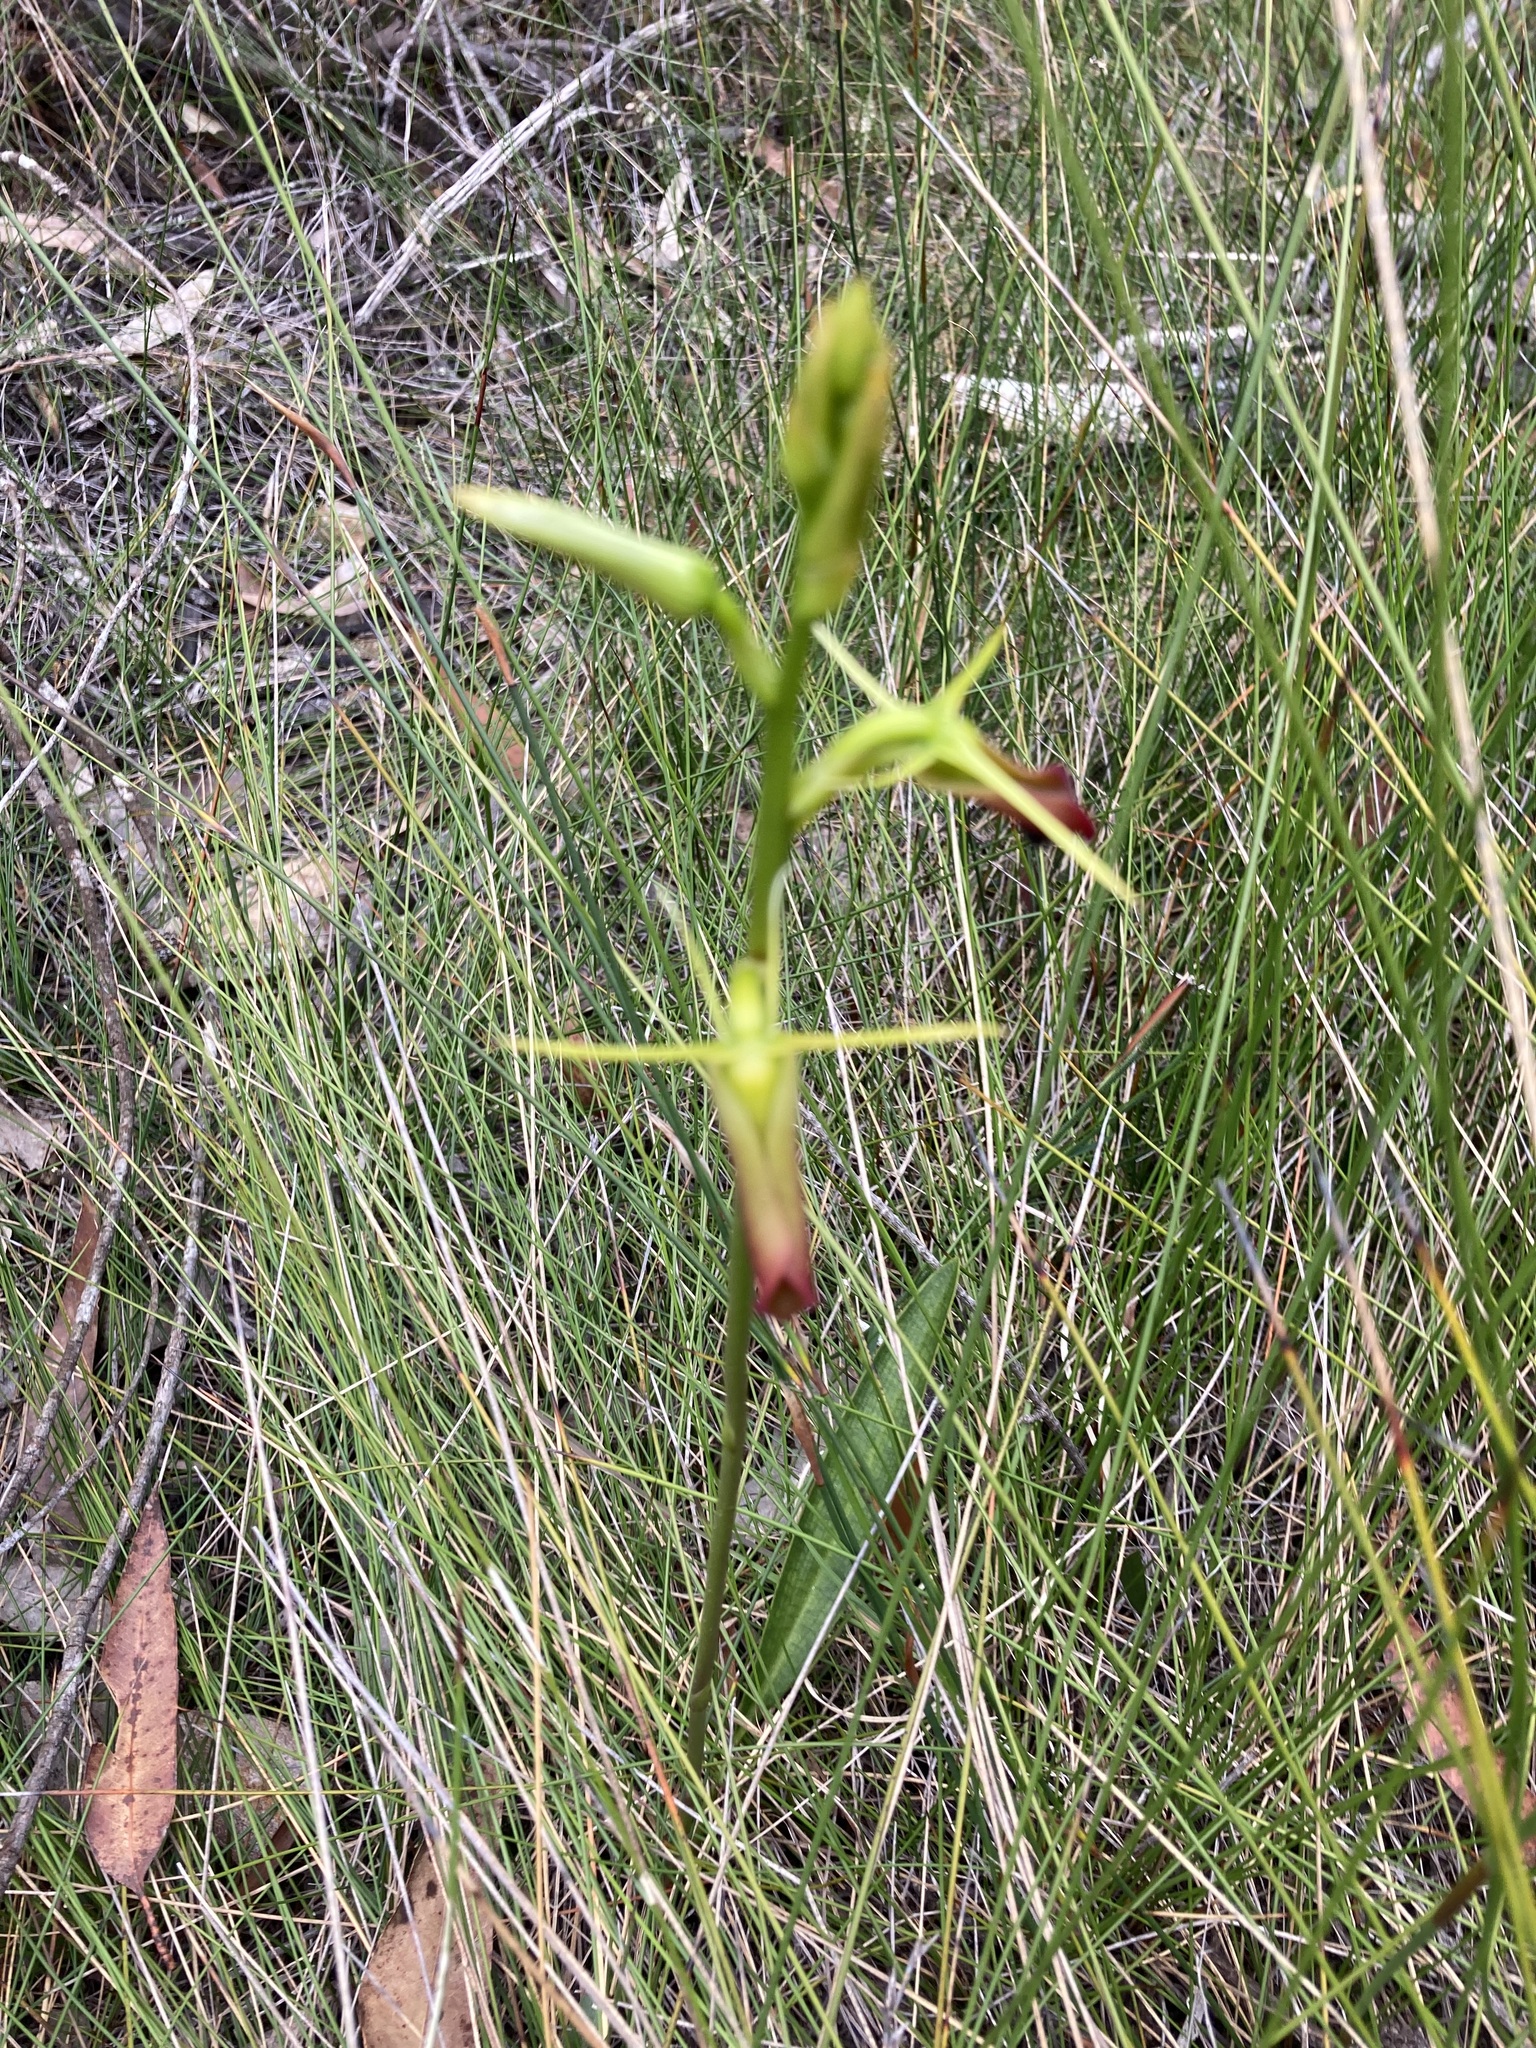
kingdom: Plantae
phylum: Tracheophyta
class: Liliopsida
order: Asparagales
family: Orchidaceae
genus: Cryptostylis
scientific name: Cryptostylis subulata
